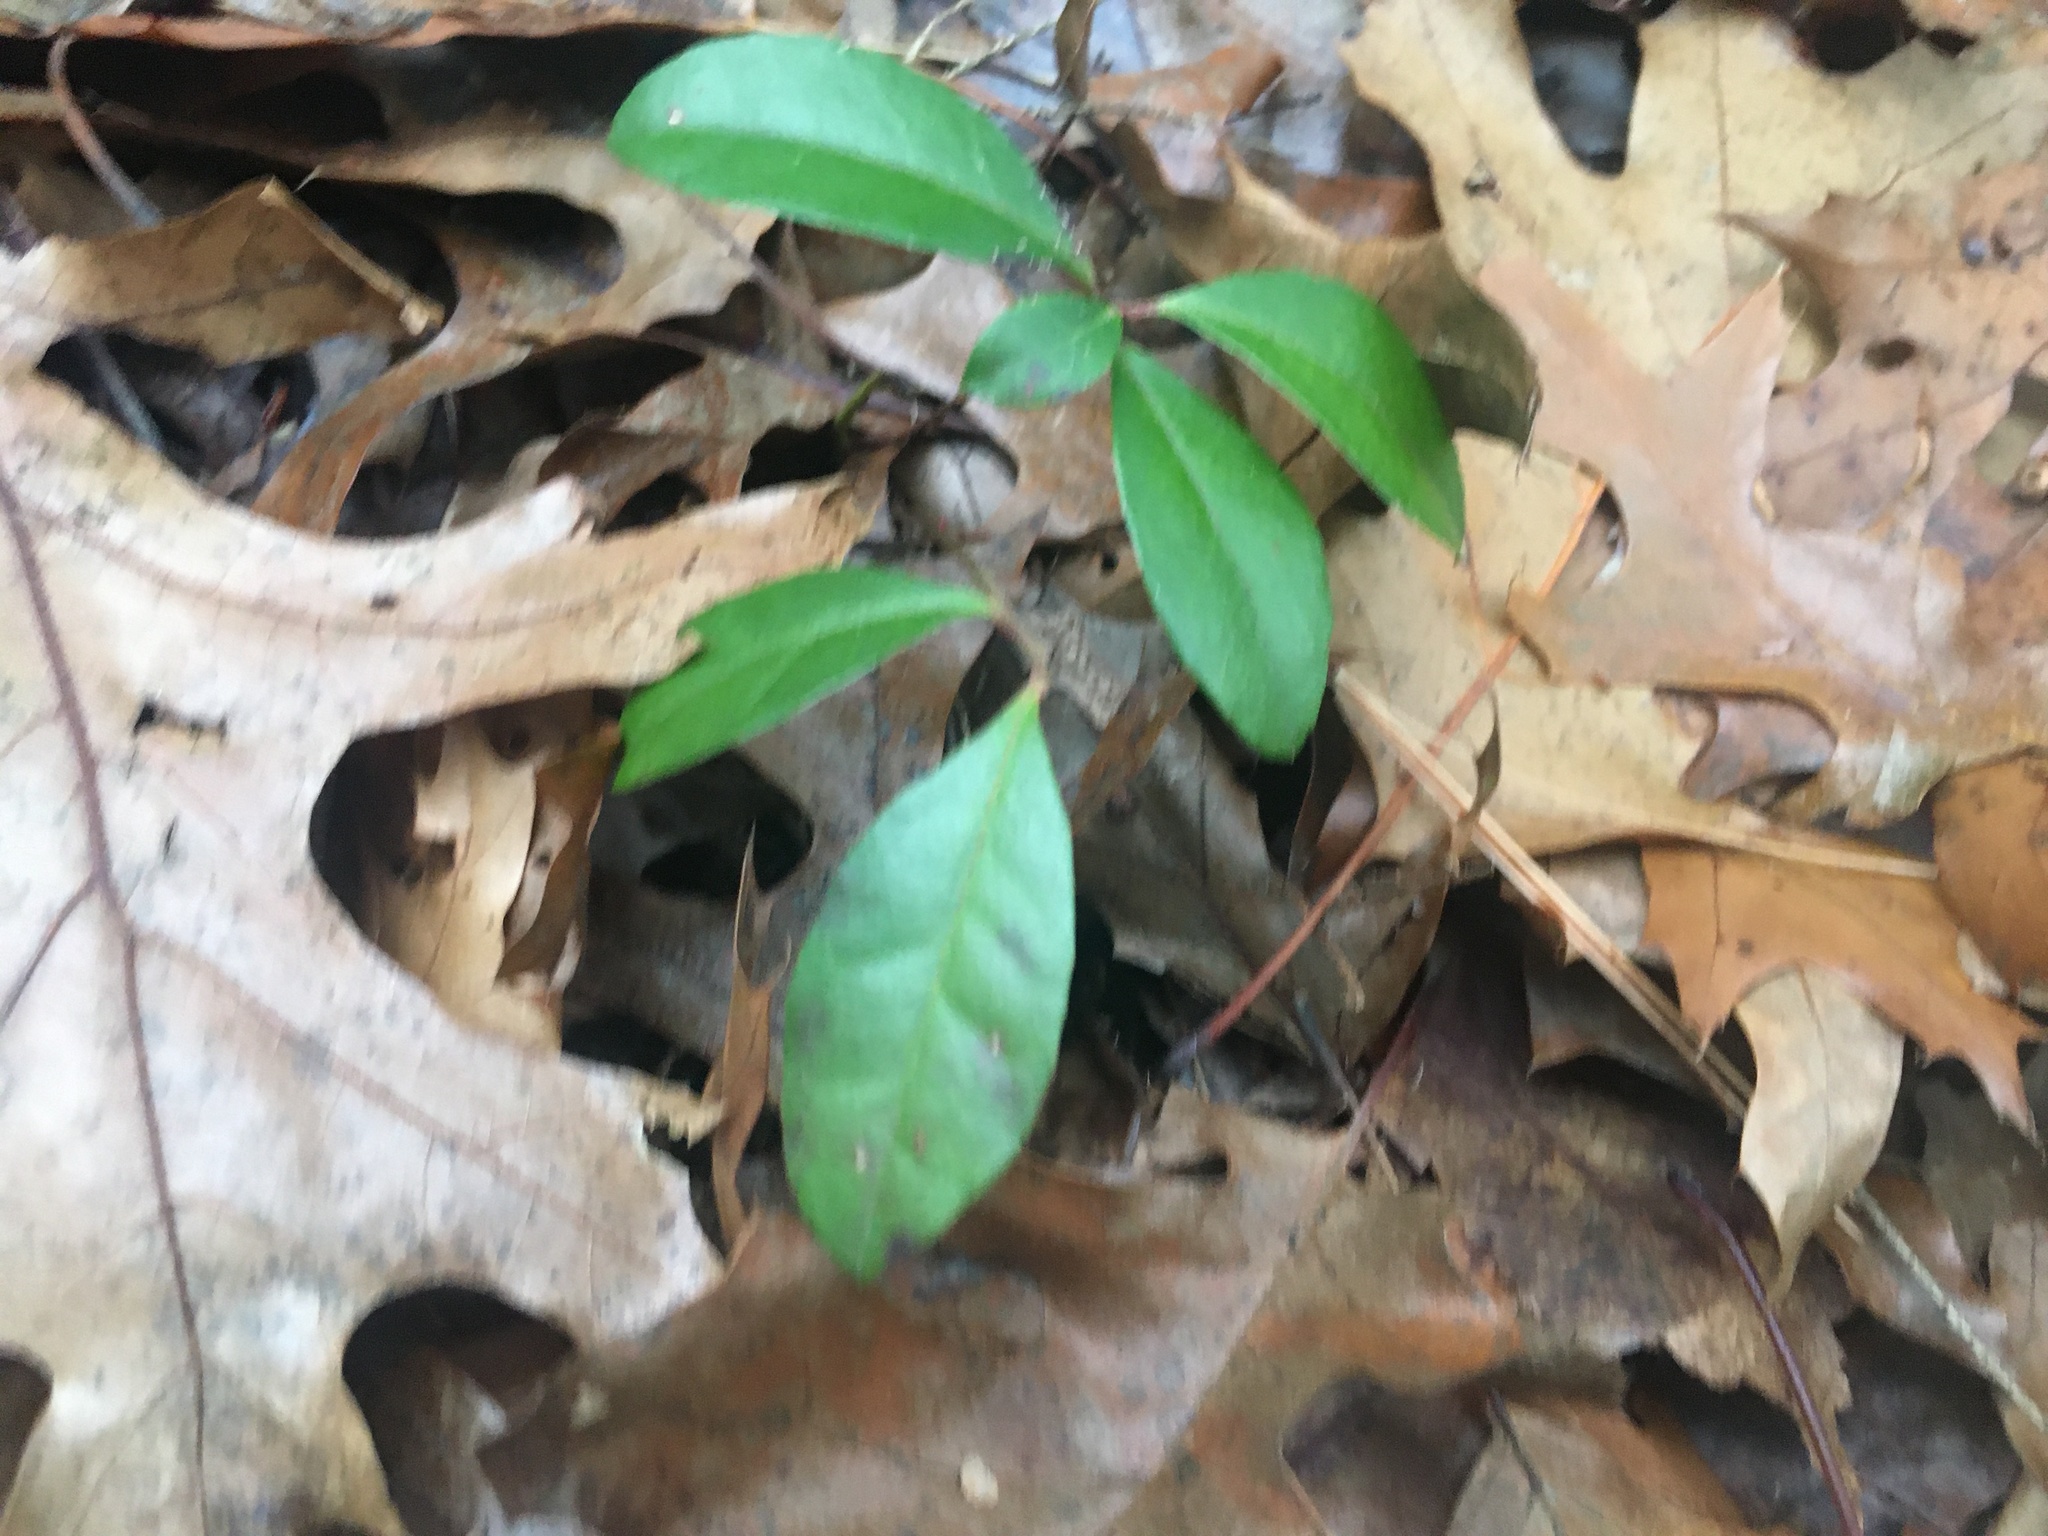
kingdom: Plantae
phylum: Tracheophyta
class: Magnoliopsida
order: Ericales
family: Ericaceae
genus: Gaultheria
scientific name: Gaultheria procumbens
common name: Checkerberry
